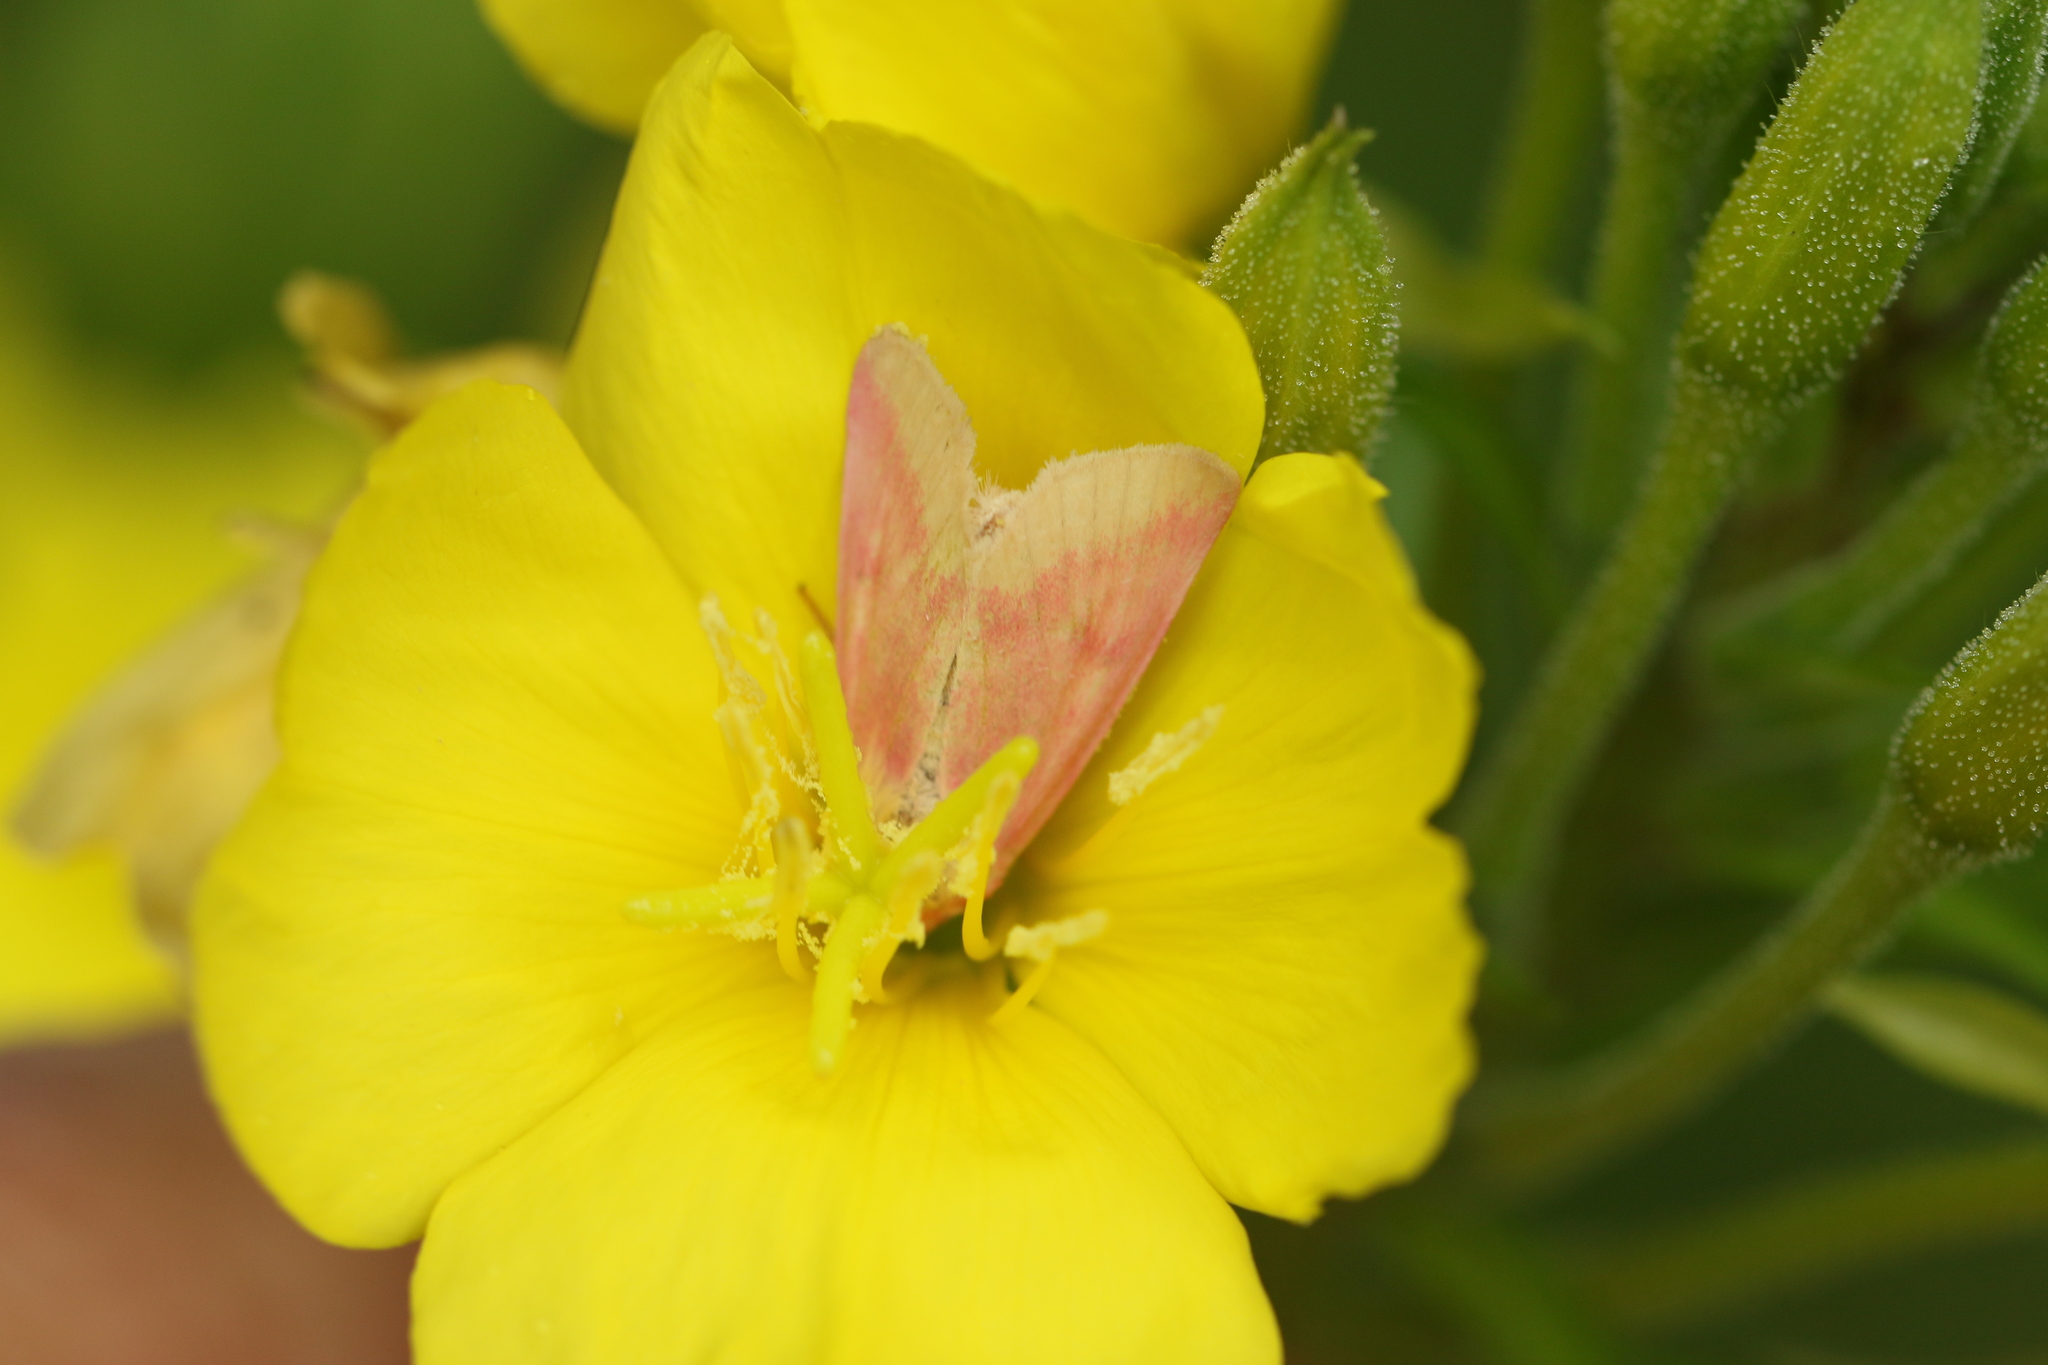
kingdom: Animalia
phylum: Arthropoda
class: Insecta
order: Lepidoptera
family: Noctuidae
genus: Schinia
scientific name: Schinia florida
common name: Primrose moth
